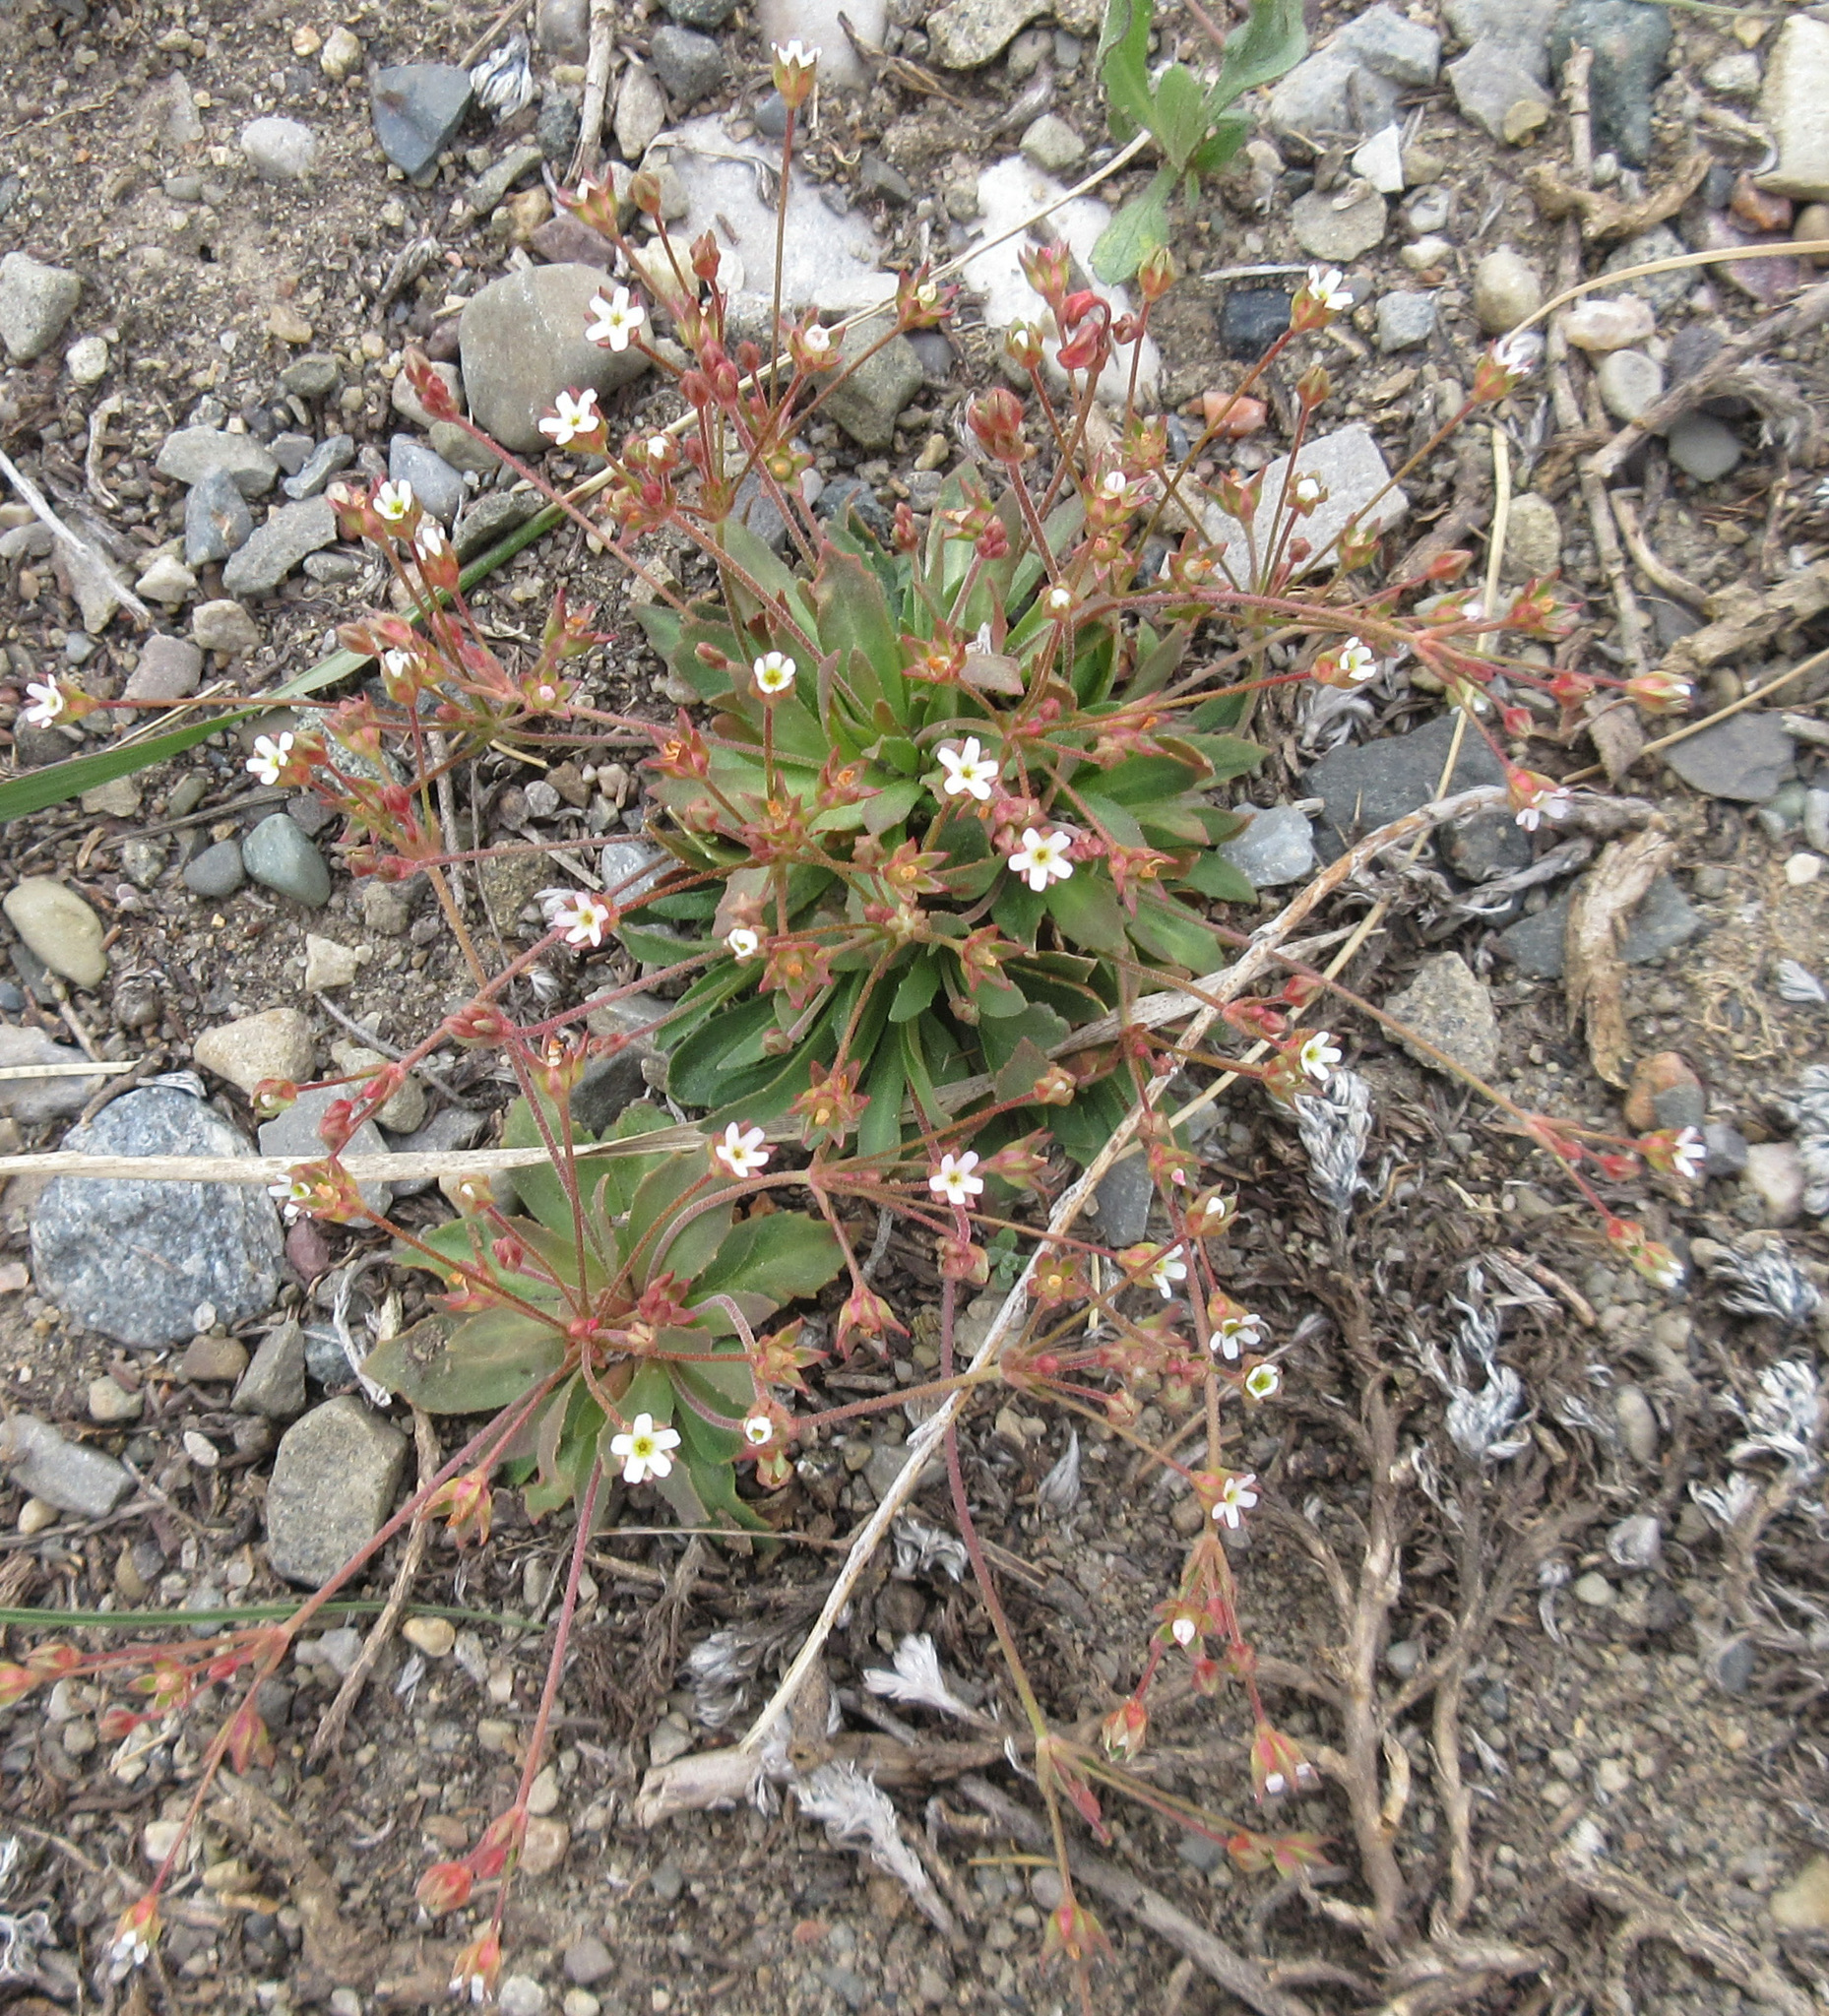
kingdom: Plantae
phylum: Tracheophyta
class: Magnoliopsida
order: Ericales
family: Primulaceae
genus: Androsace
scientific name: Androsace septentrionalis
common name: Hairy northern fairy-candelabra
